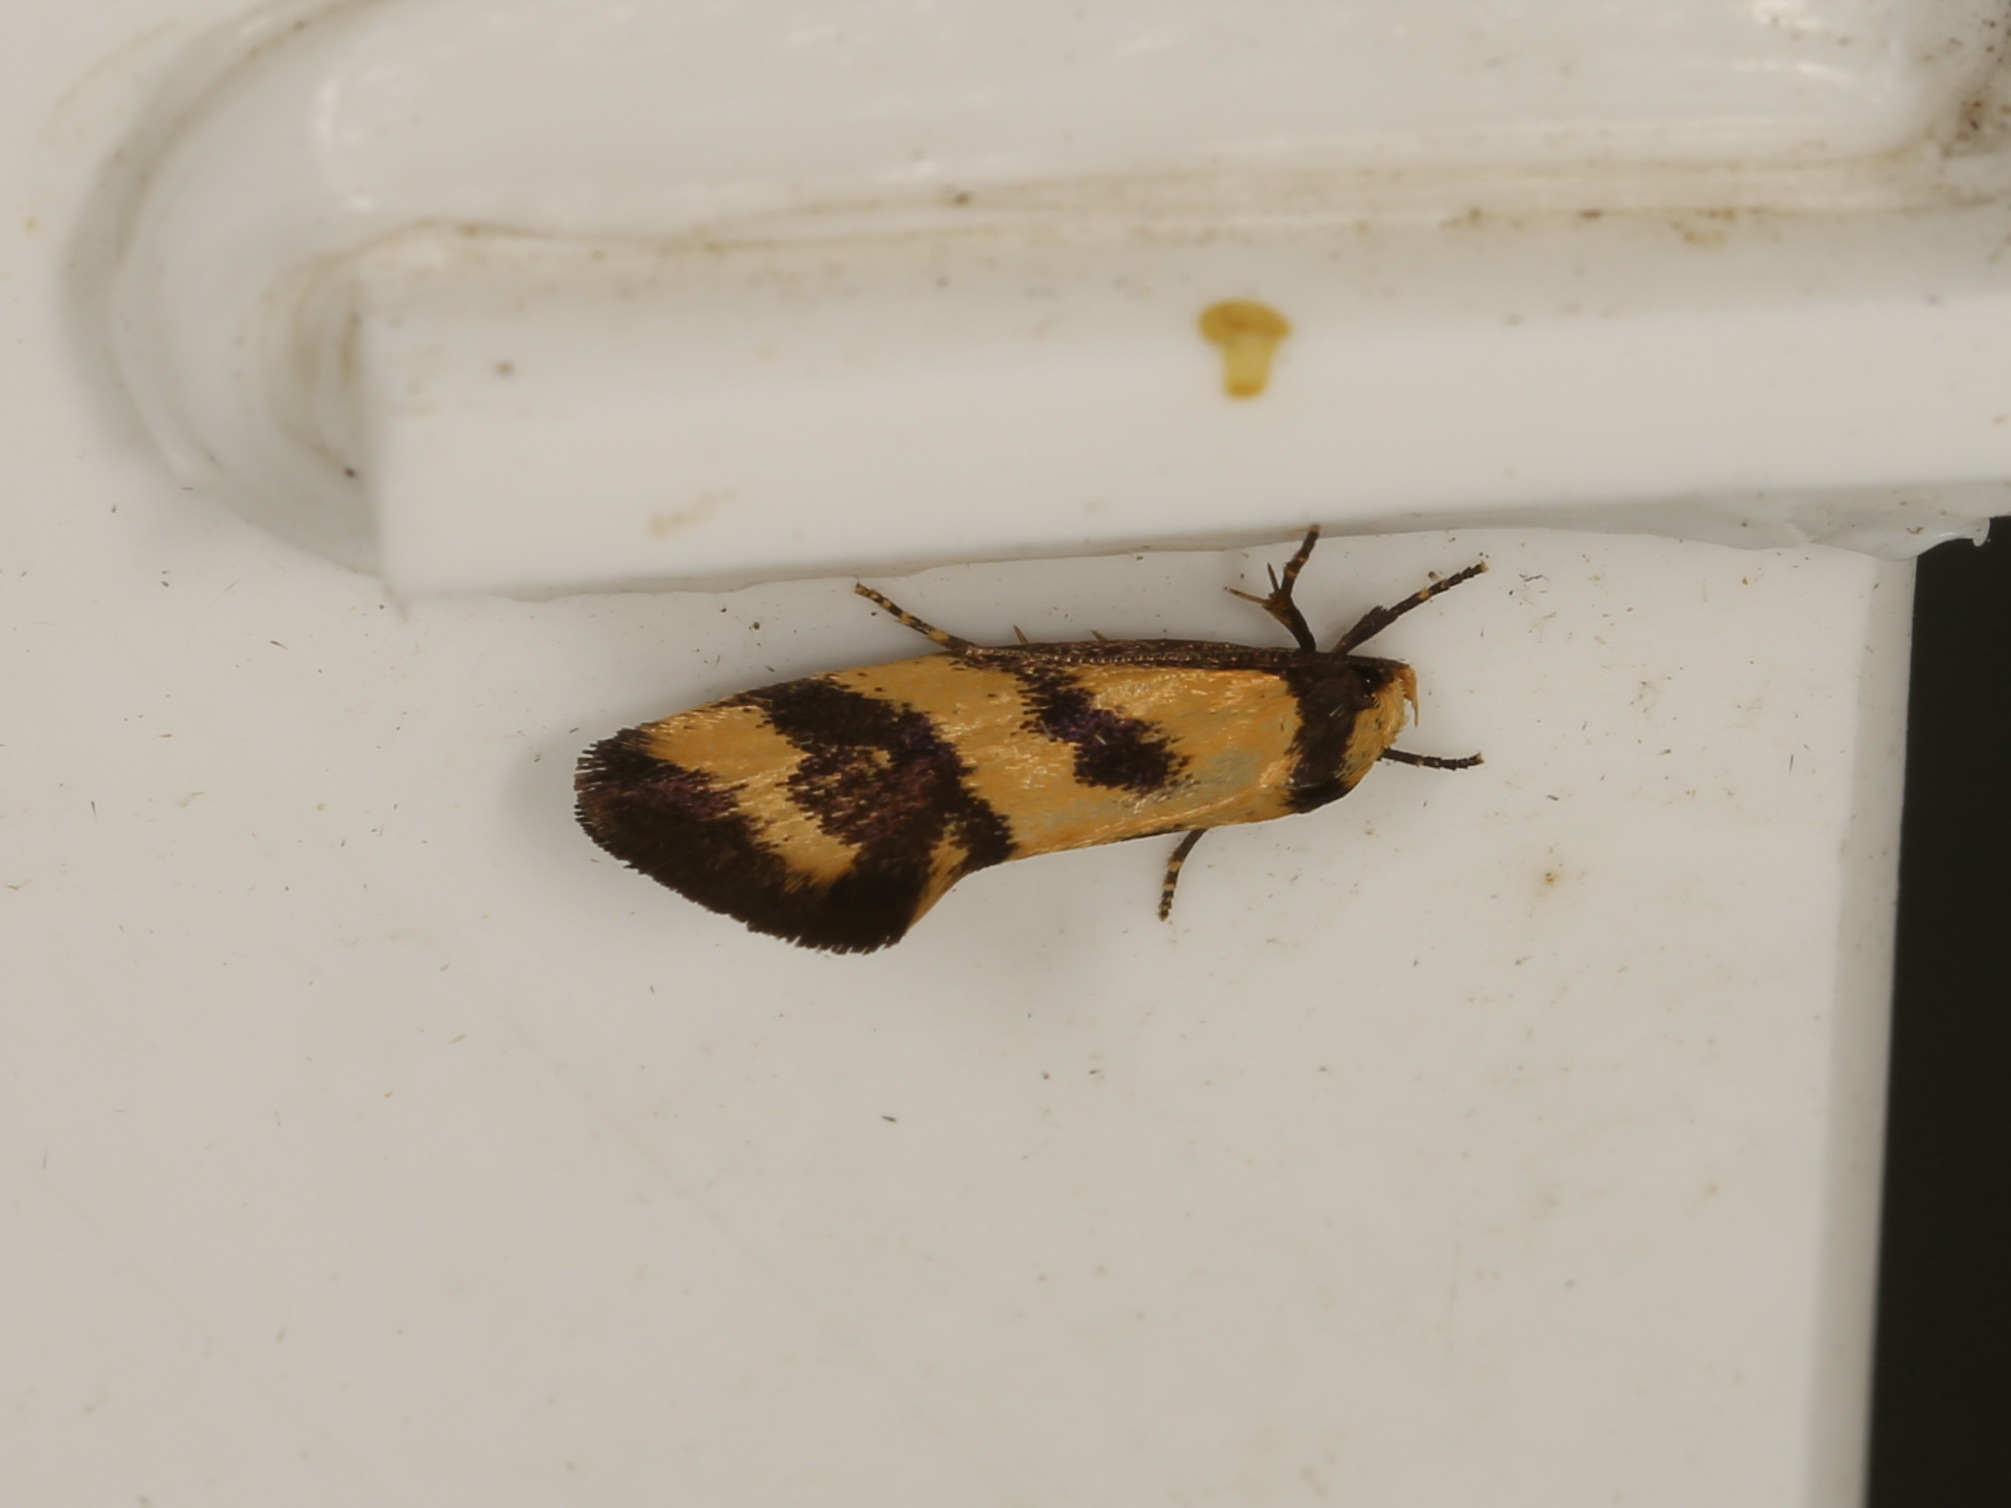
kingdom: Animalia
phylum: Arthropoda
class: Insecta
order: Lepidoptera
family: Oecophoridae
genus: Olbonoma
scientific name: Olbonoma triptycha
